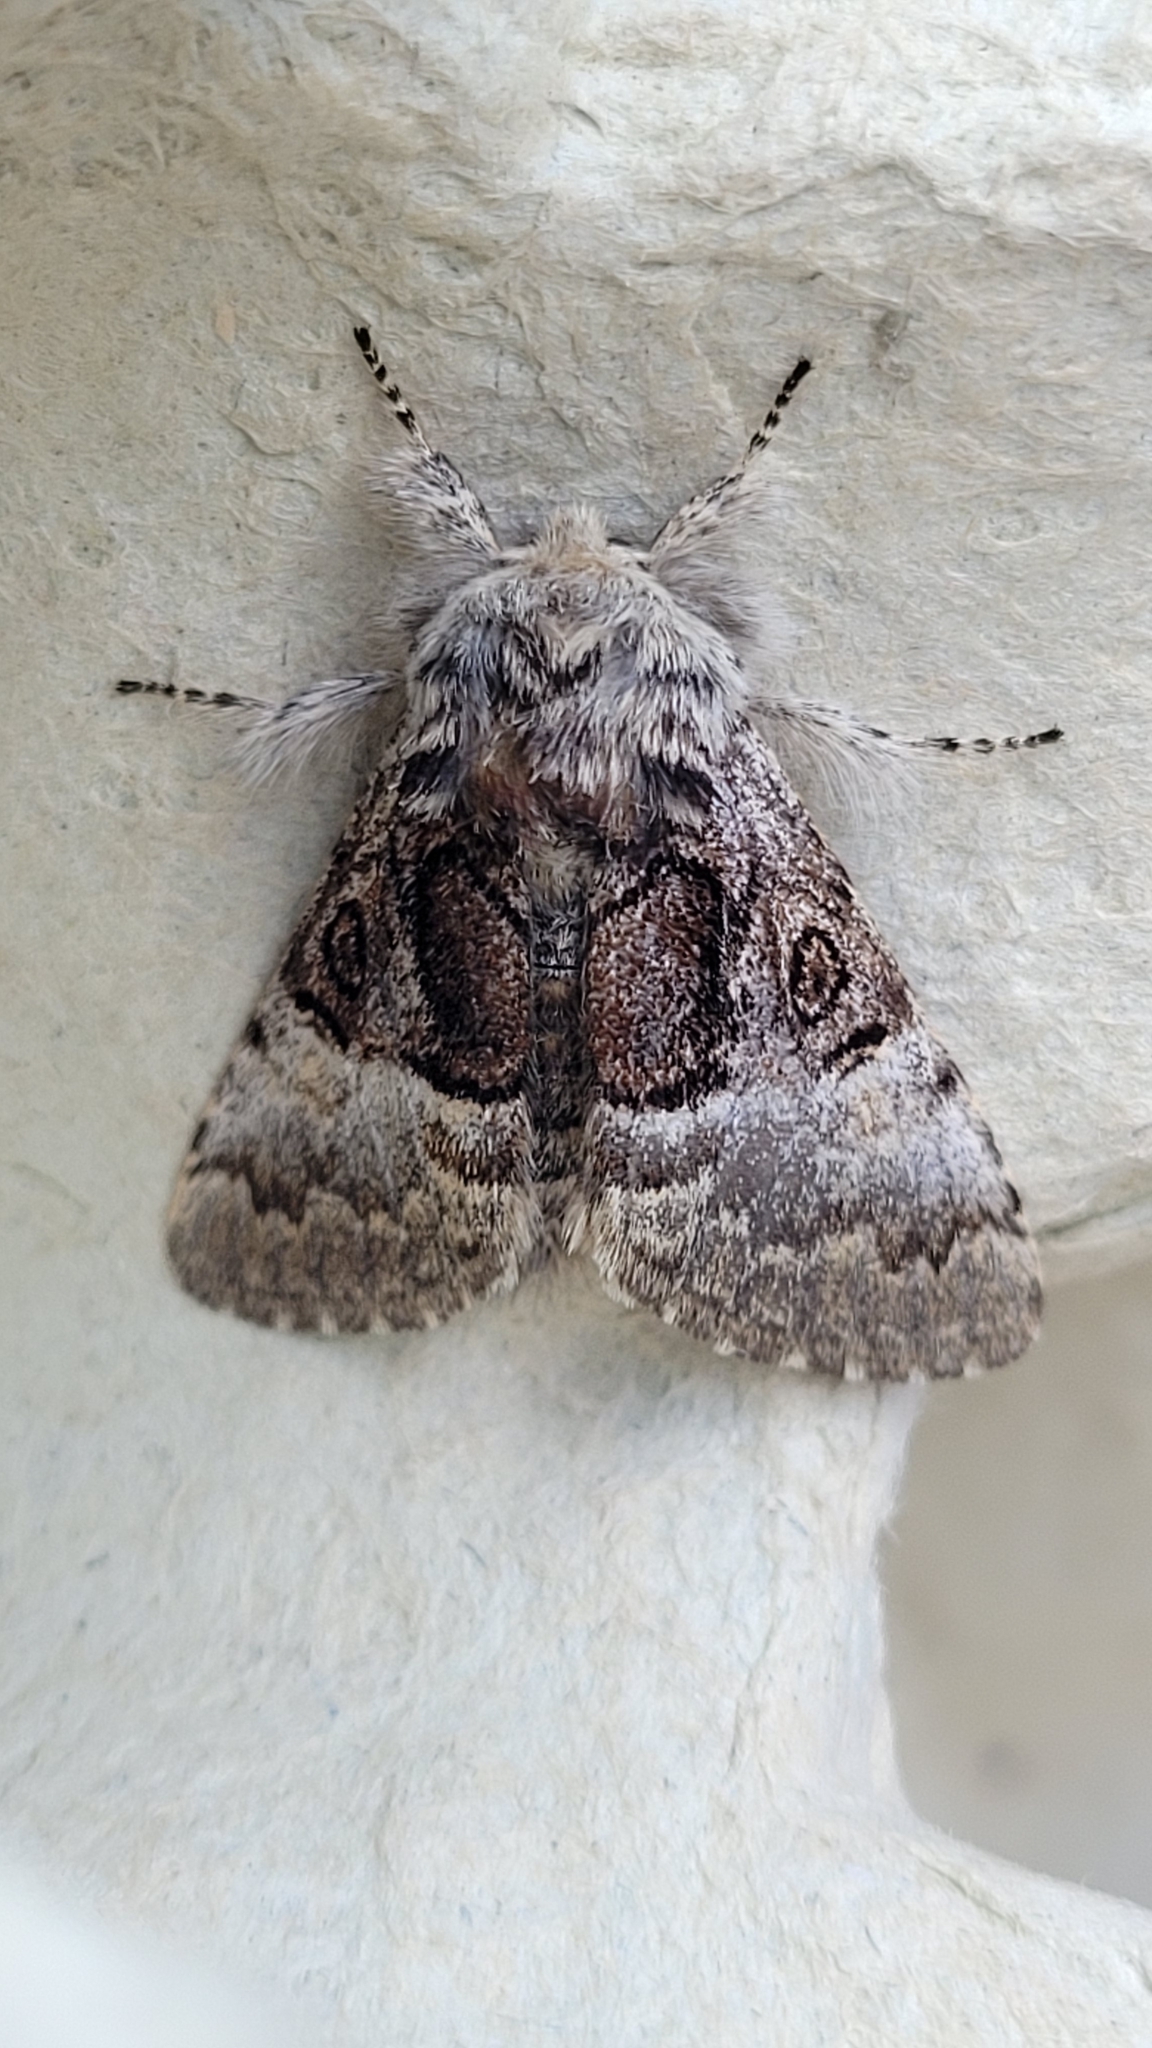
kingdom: Animalia
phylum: Arthropoda
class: Insecta
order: Lepidoptera
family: Noctuidae
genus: Colocasia
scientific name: Colocasia coryli
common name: Nut-tree tussock
